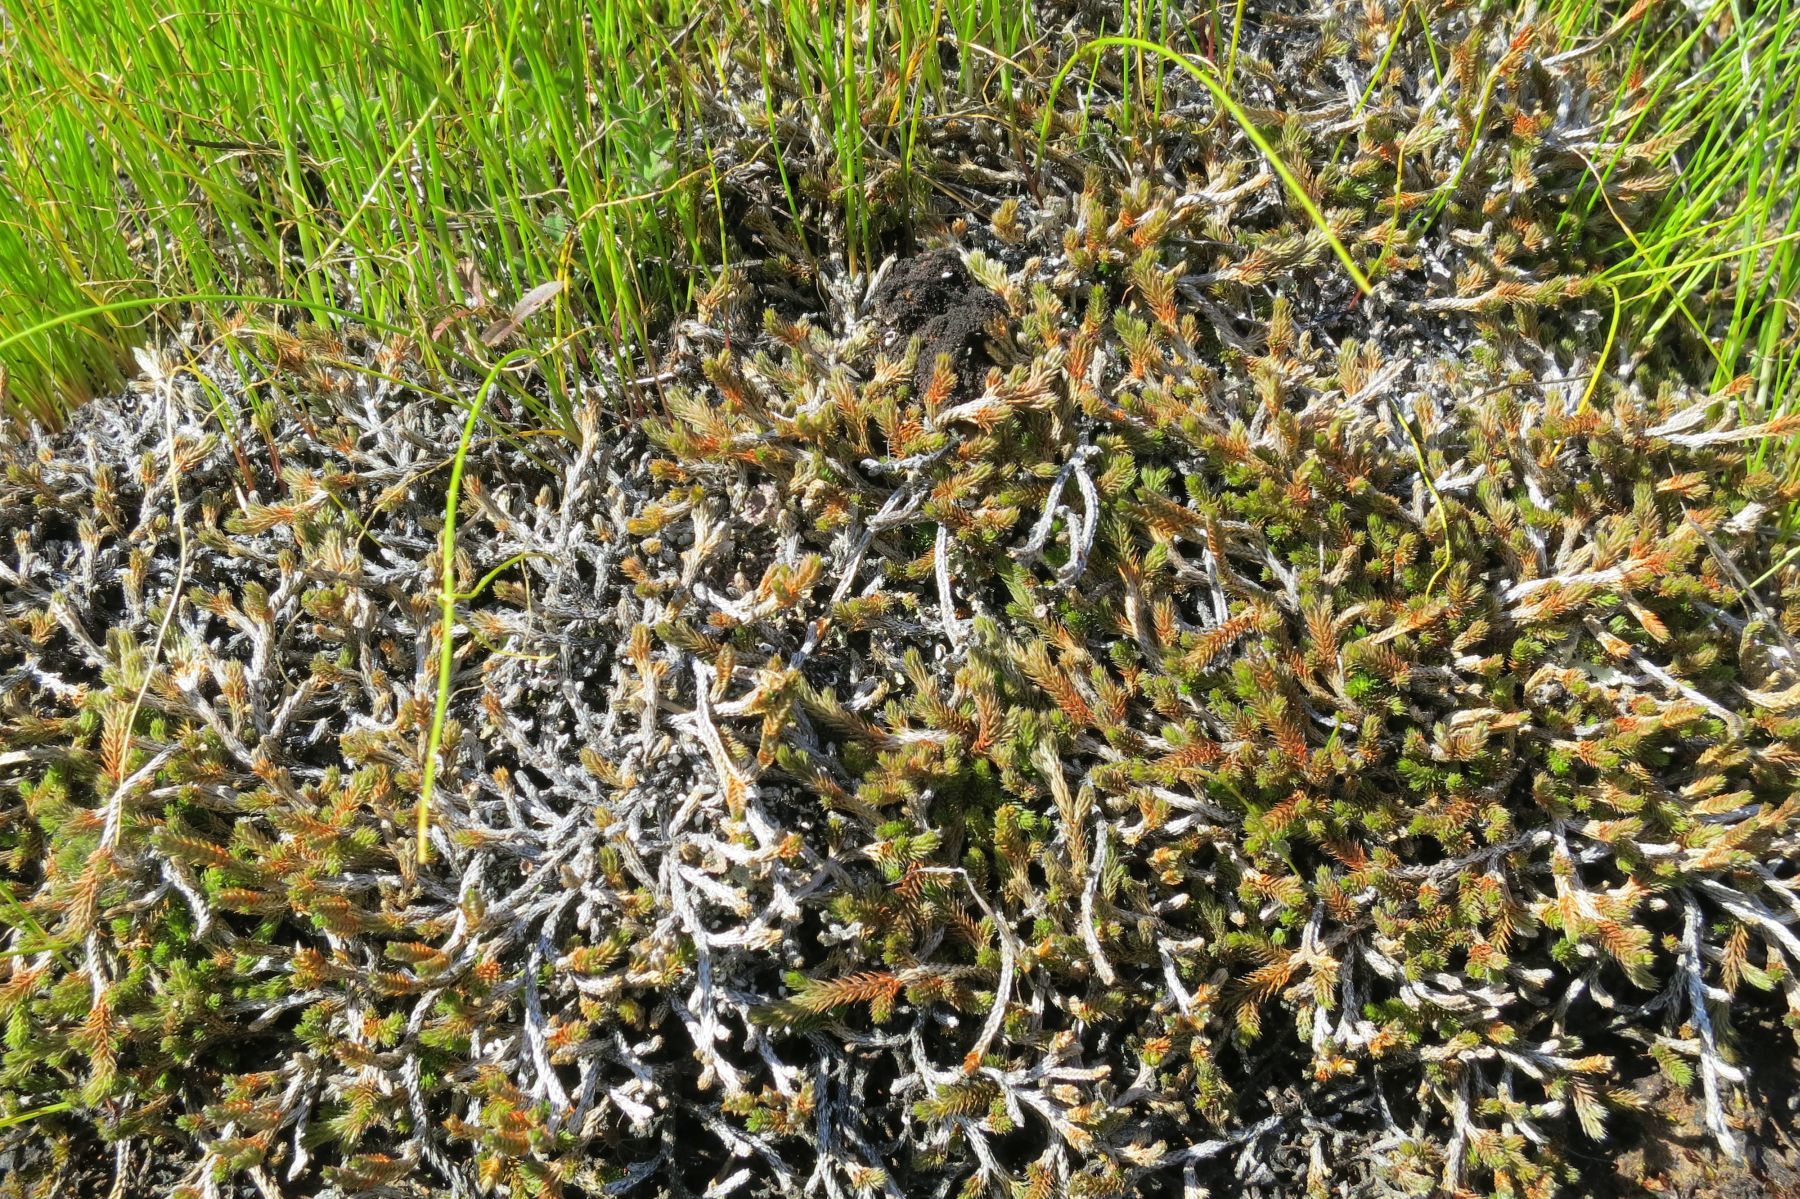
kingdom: Plantae
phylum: Tracheophyta
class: Lycopodiopsida
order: Selaginellales
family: Selaginellaceae
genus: Selaginella
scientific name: Selaginella wallacei
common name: Wallace's selaginella
